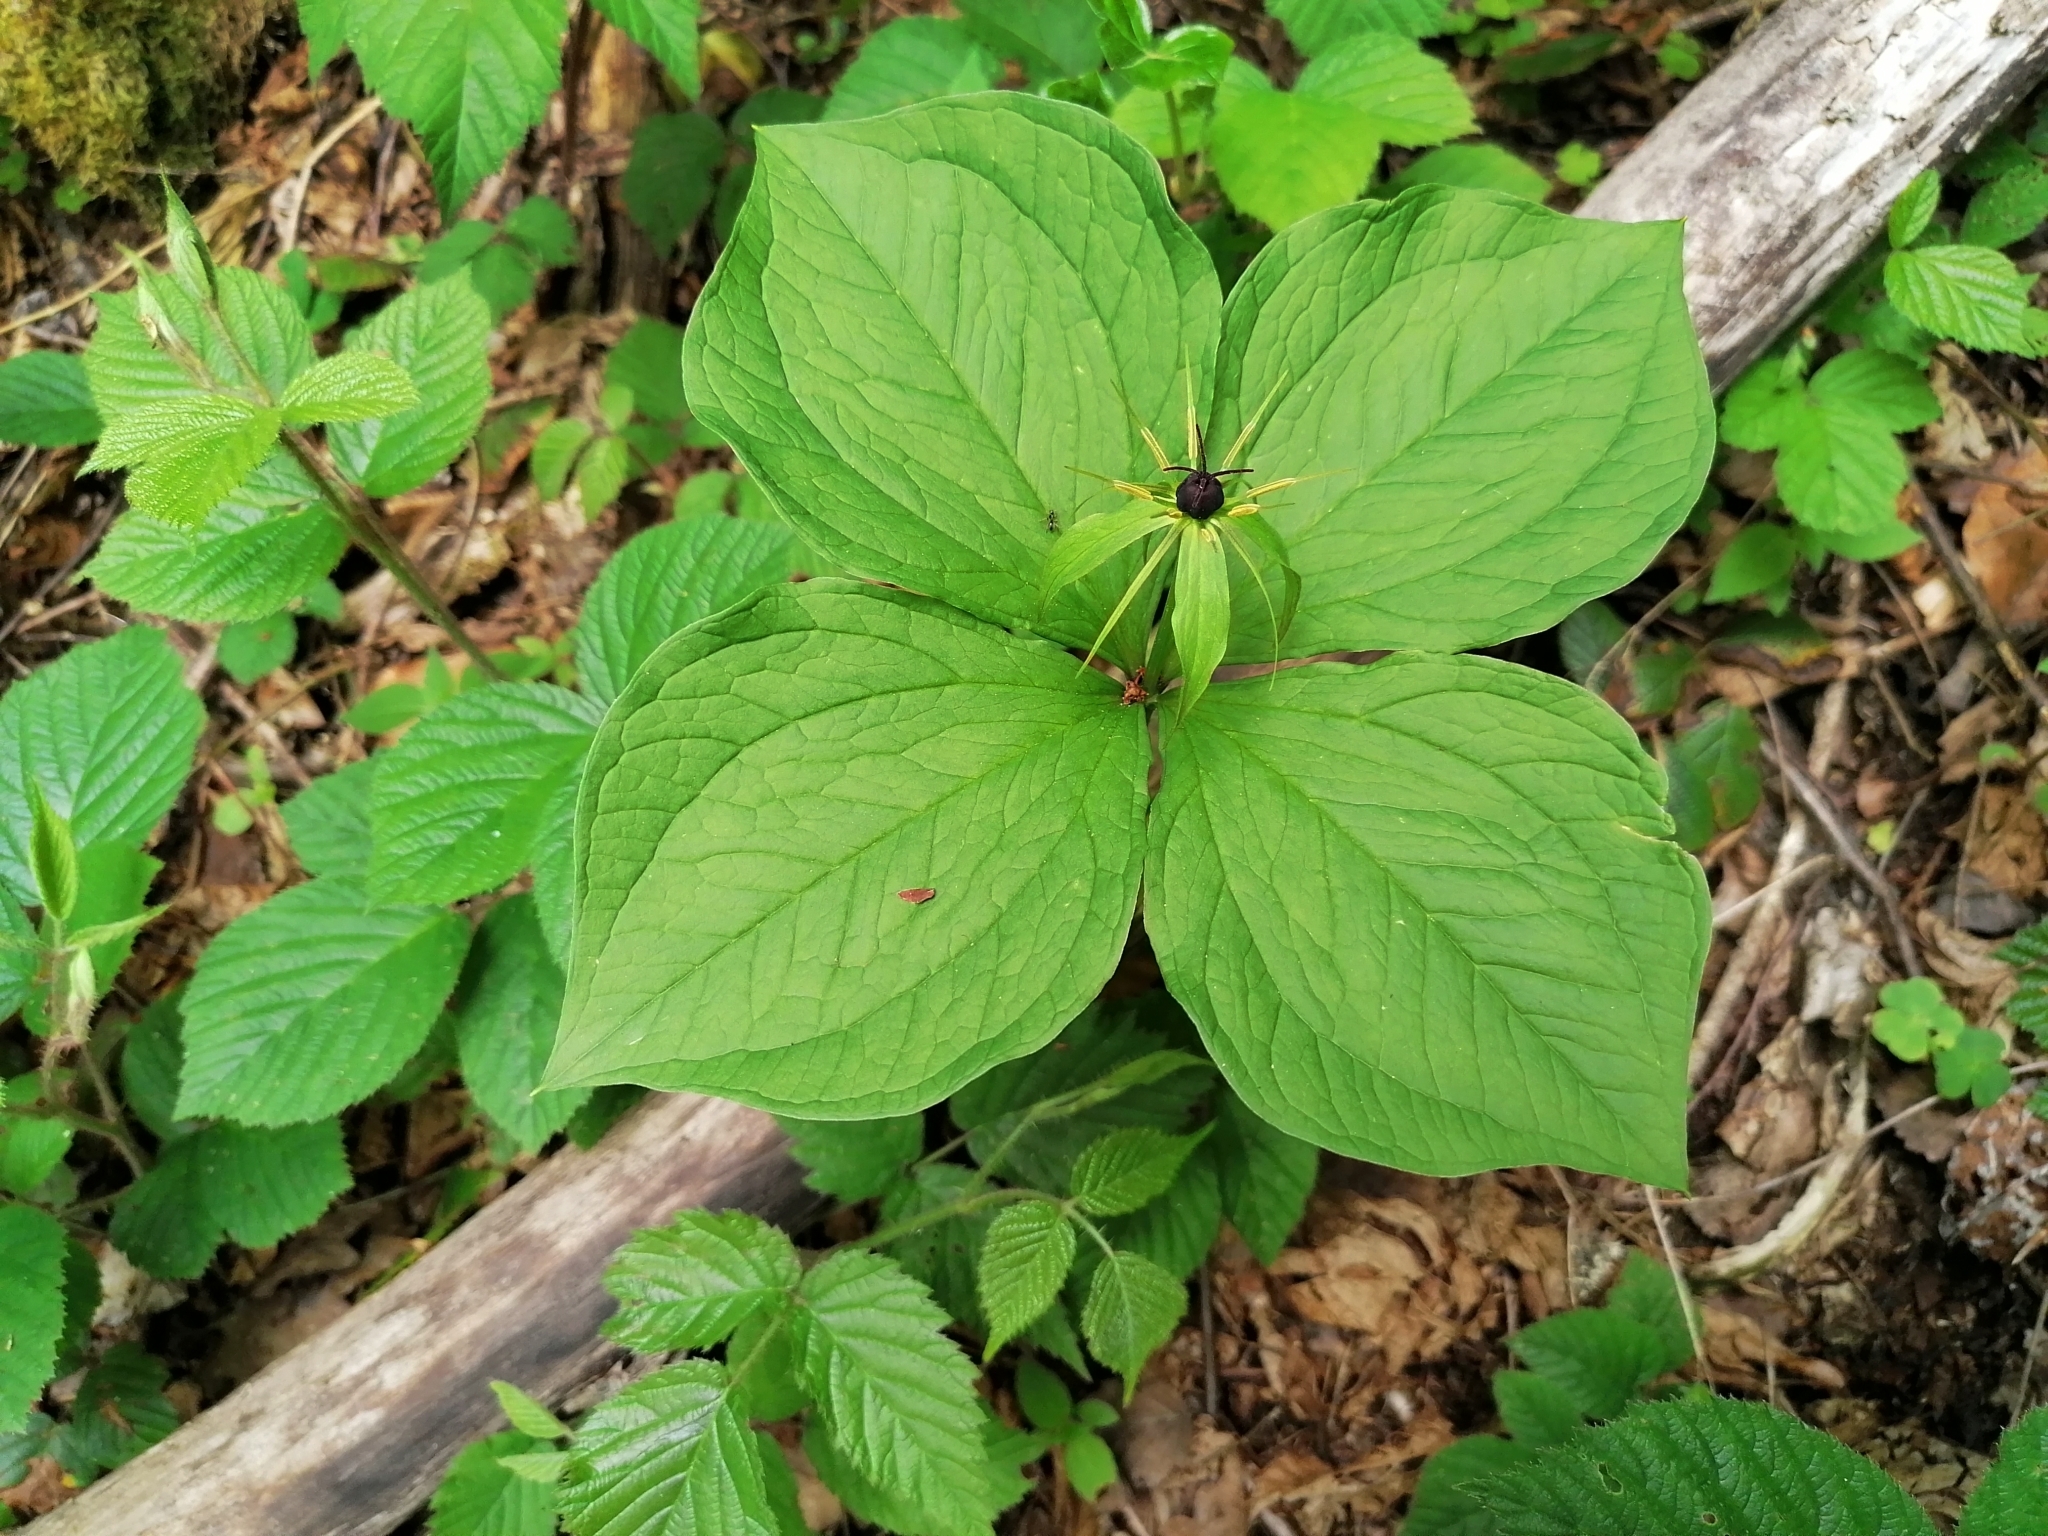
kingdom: Plantae
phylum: Tracheophyta
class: Liliopsida
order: Liliales
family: Melanthiaceae
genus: Paris
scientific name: Paris quadrifolia
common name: Herb-paris
